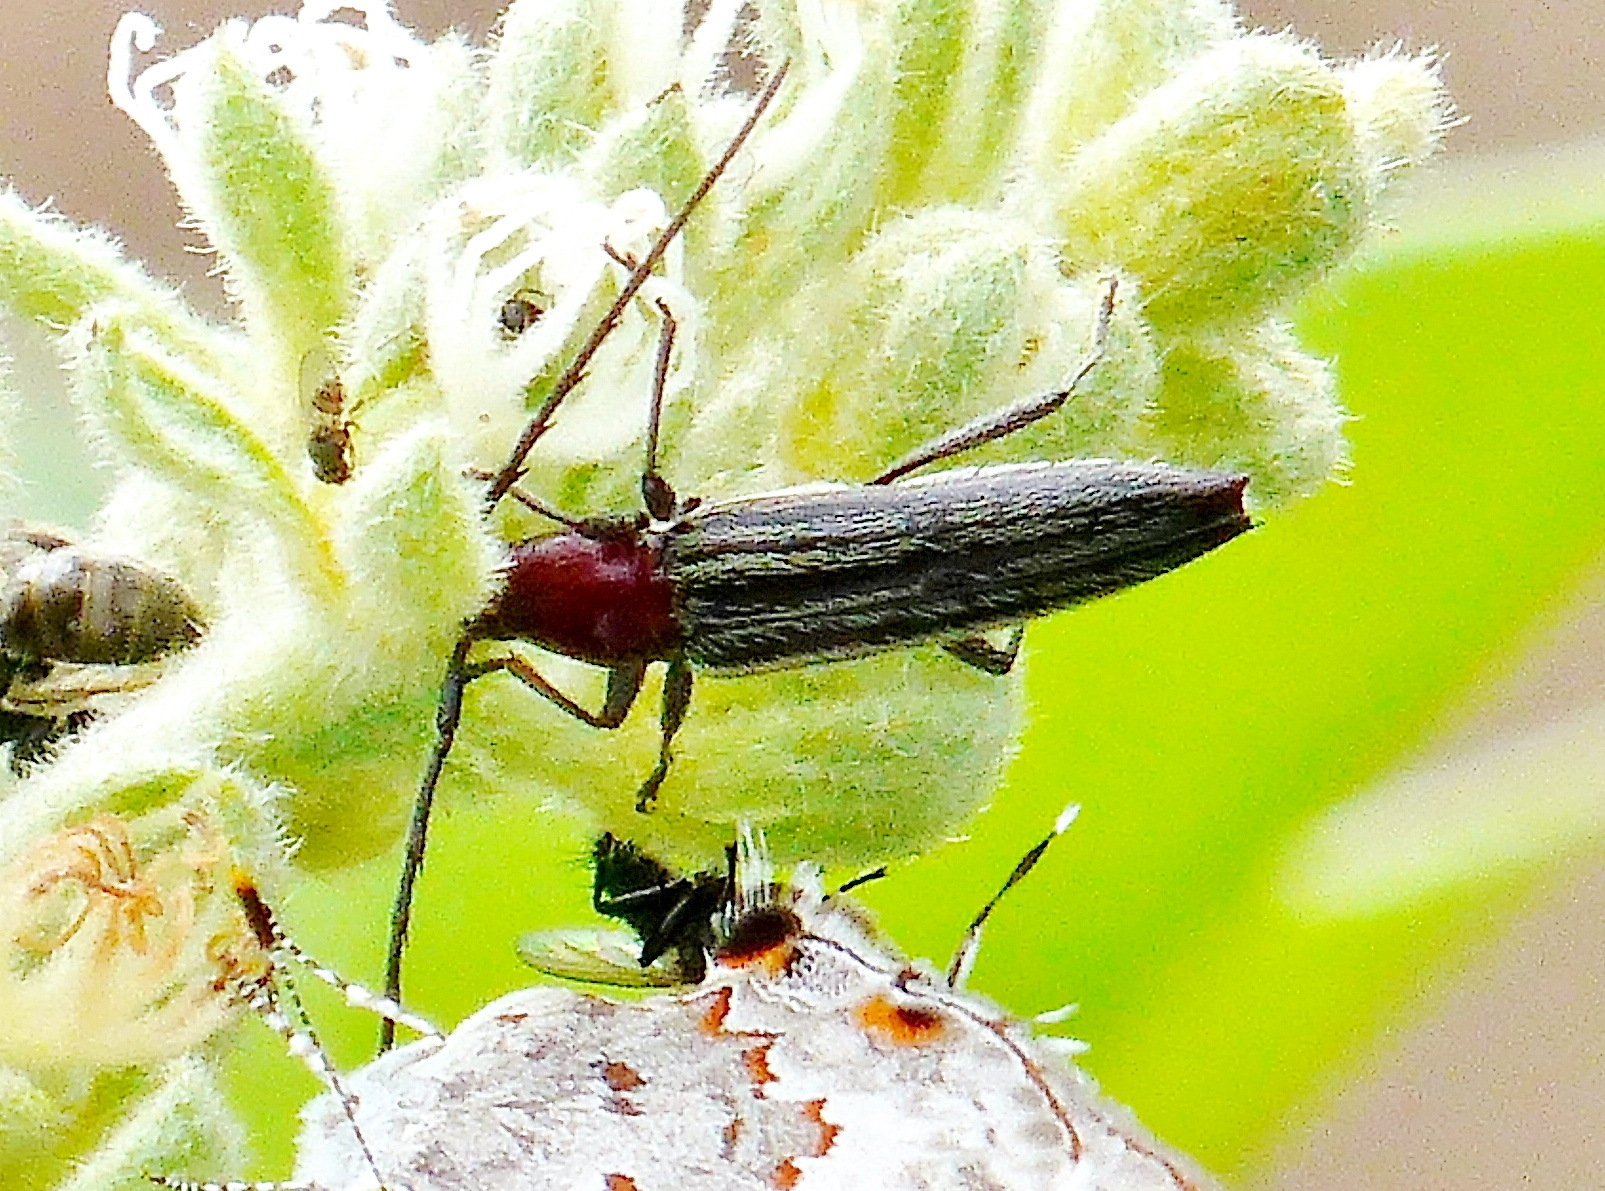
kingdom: Animalia
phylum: Arthropoda
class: Insecta
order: Coleoptera
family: Cerambycidae
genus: Stenosphenus
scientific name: Stenosphenus lugens
